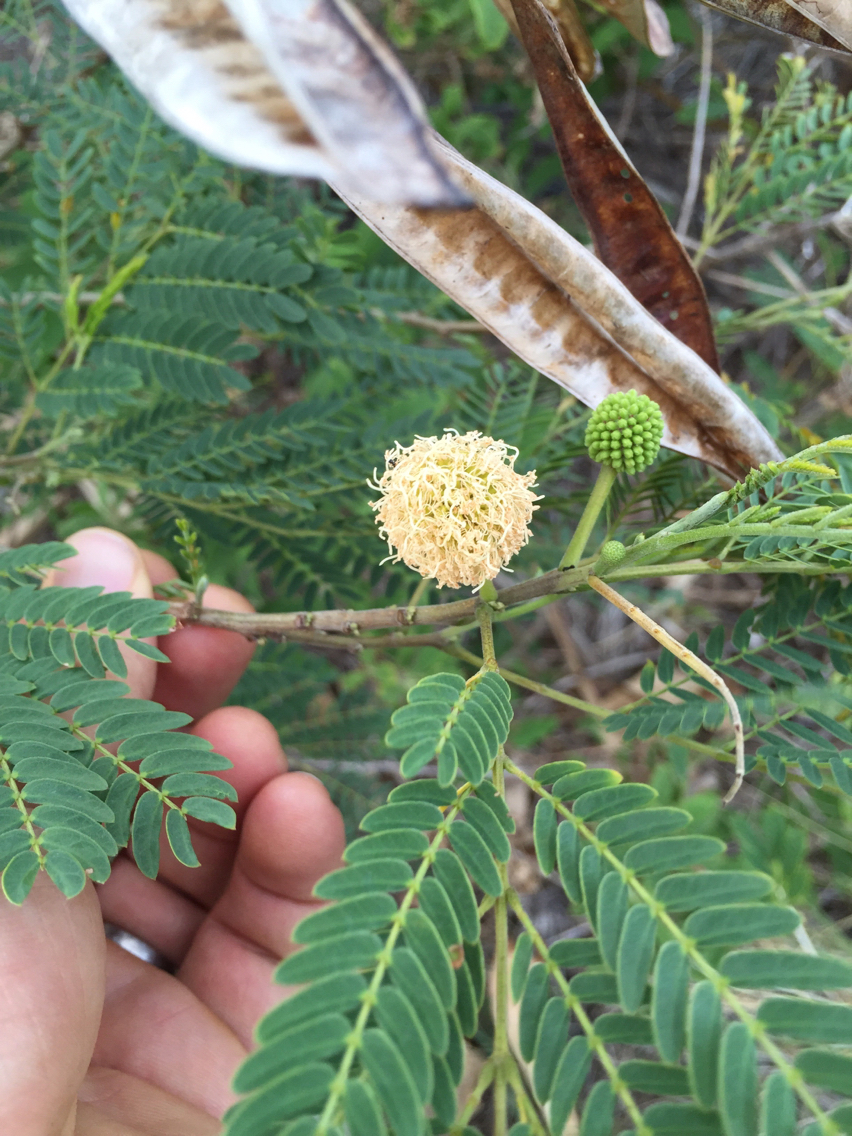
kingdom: Plantae
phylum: Tracheophyta
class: Magnoliopsida
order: Fabales
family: Fabaceae
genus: Leucaena
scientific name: Leucaena leucocephala
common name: White leadtree
